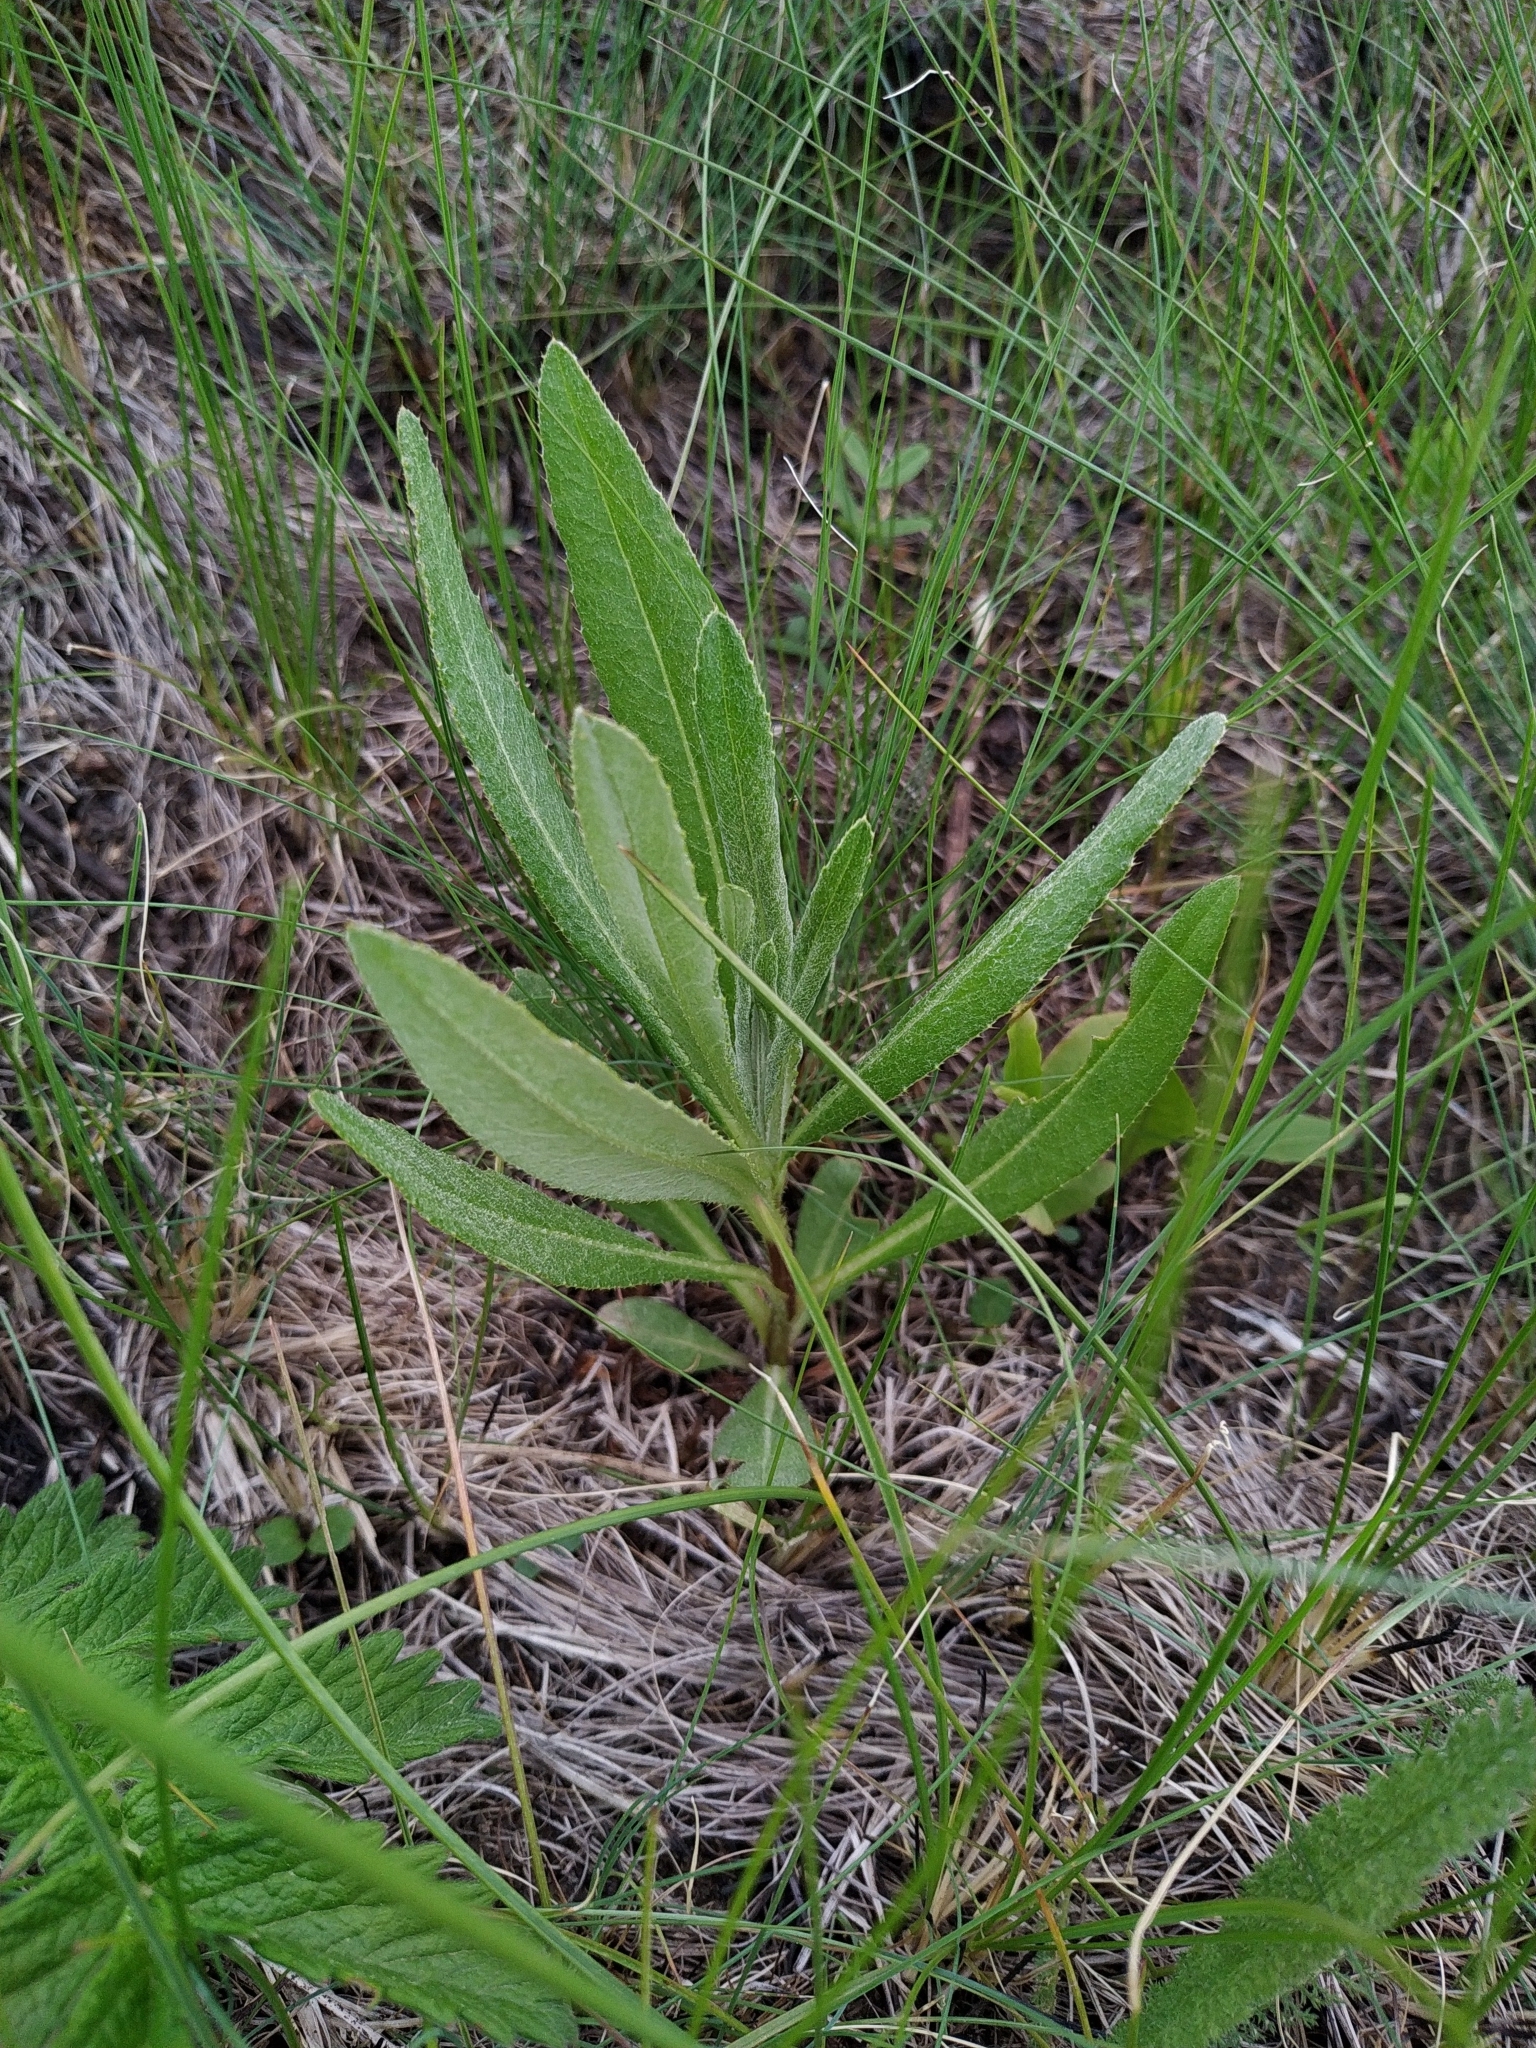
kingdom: Plantae
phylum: Tracheophyta
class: Magnoliopsida
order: Asterales
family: Asteraceae
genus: Cirsium
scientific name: Cirsium arvense
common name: Creeping thistle
